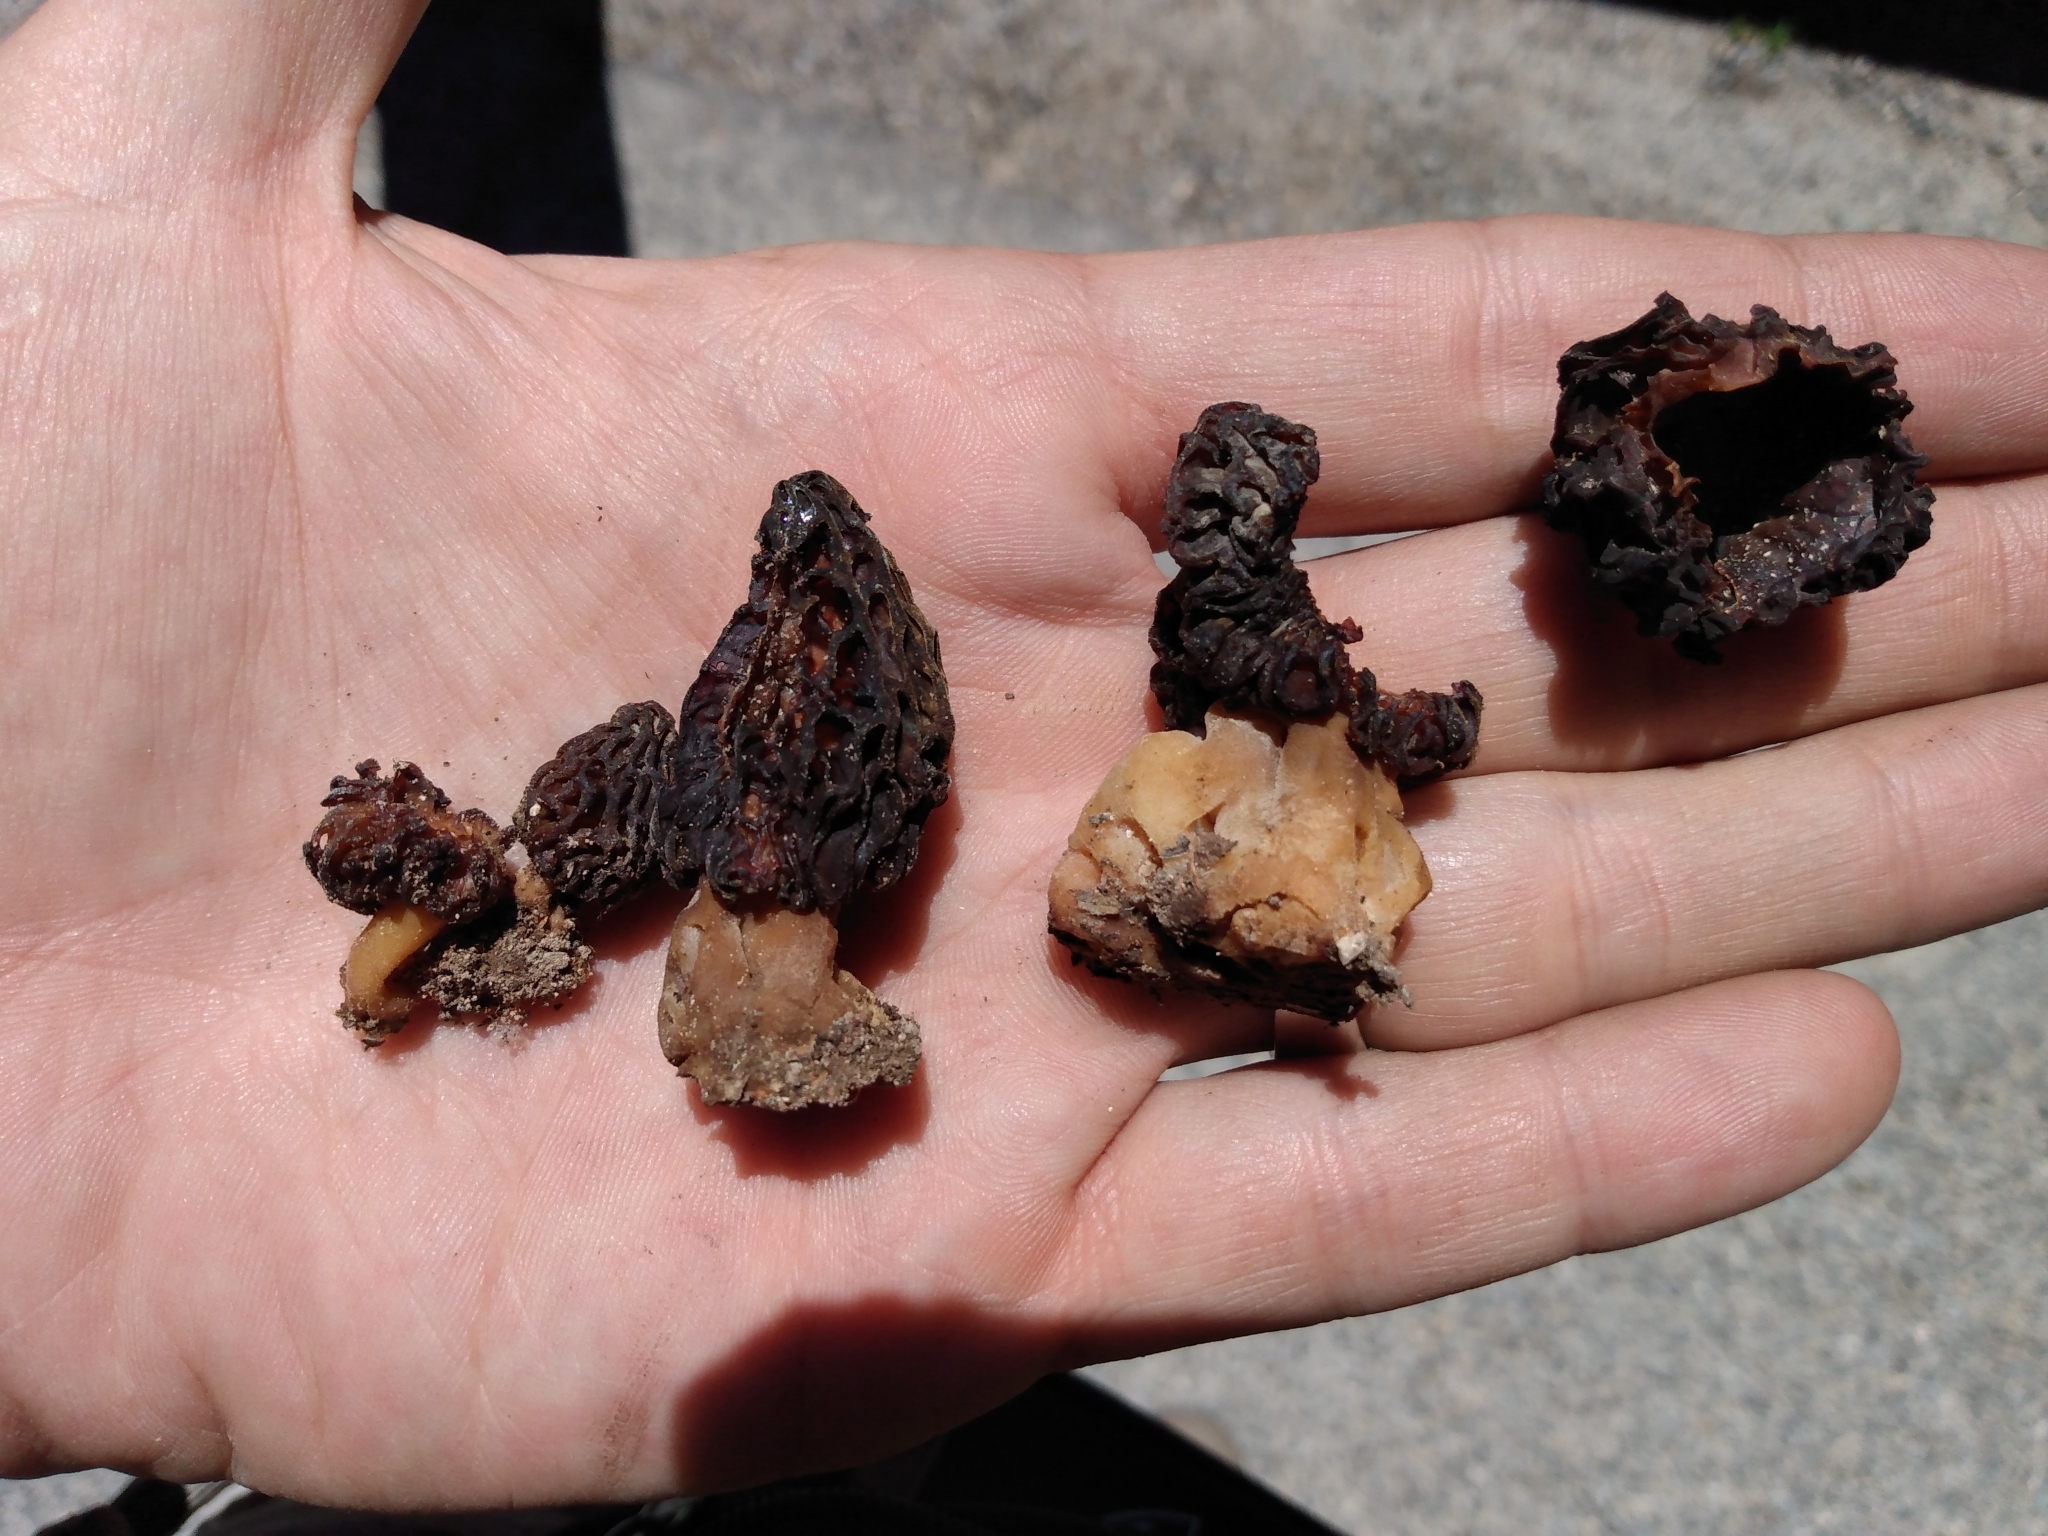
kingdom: Fungi
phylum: Ascomycota
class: Pezizomycetes
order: Pezizales
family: Morchellaceae
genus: Morchella
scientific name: Morchella snyderi
